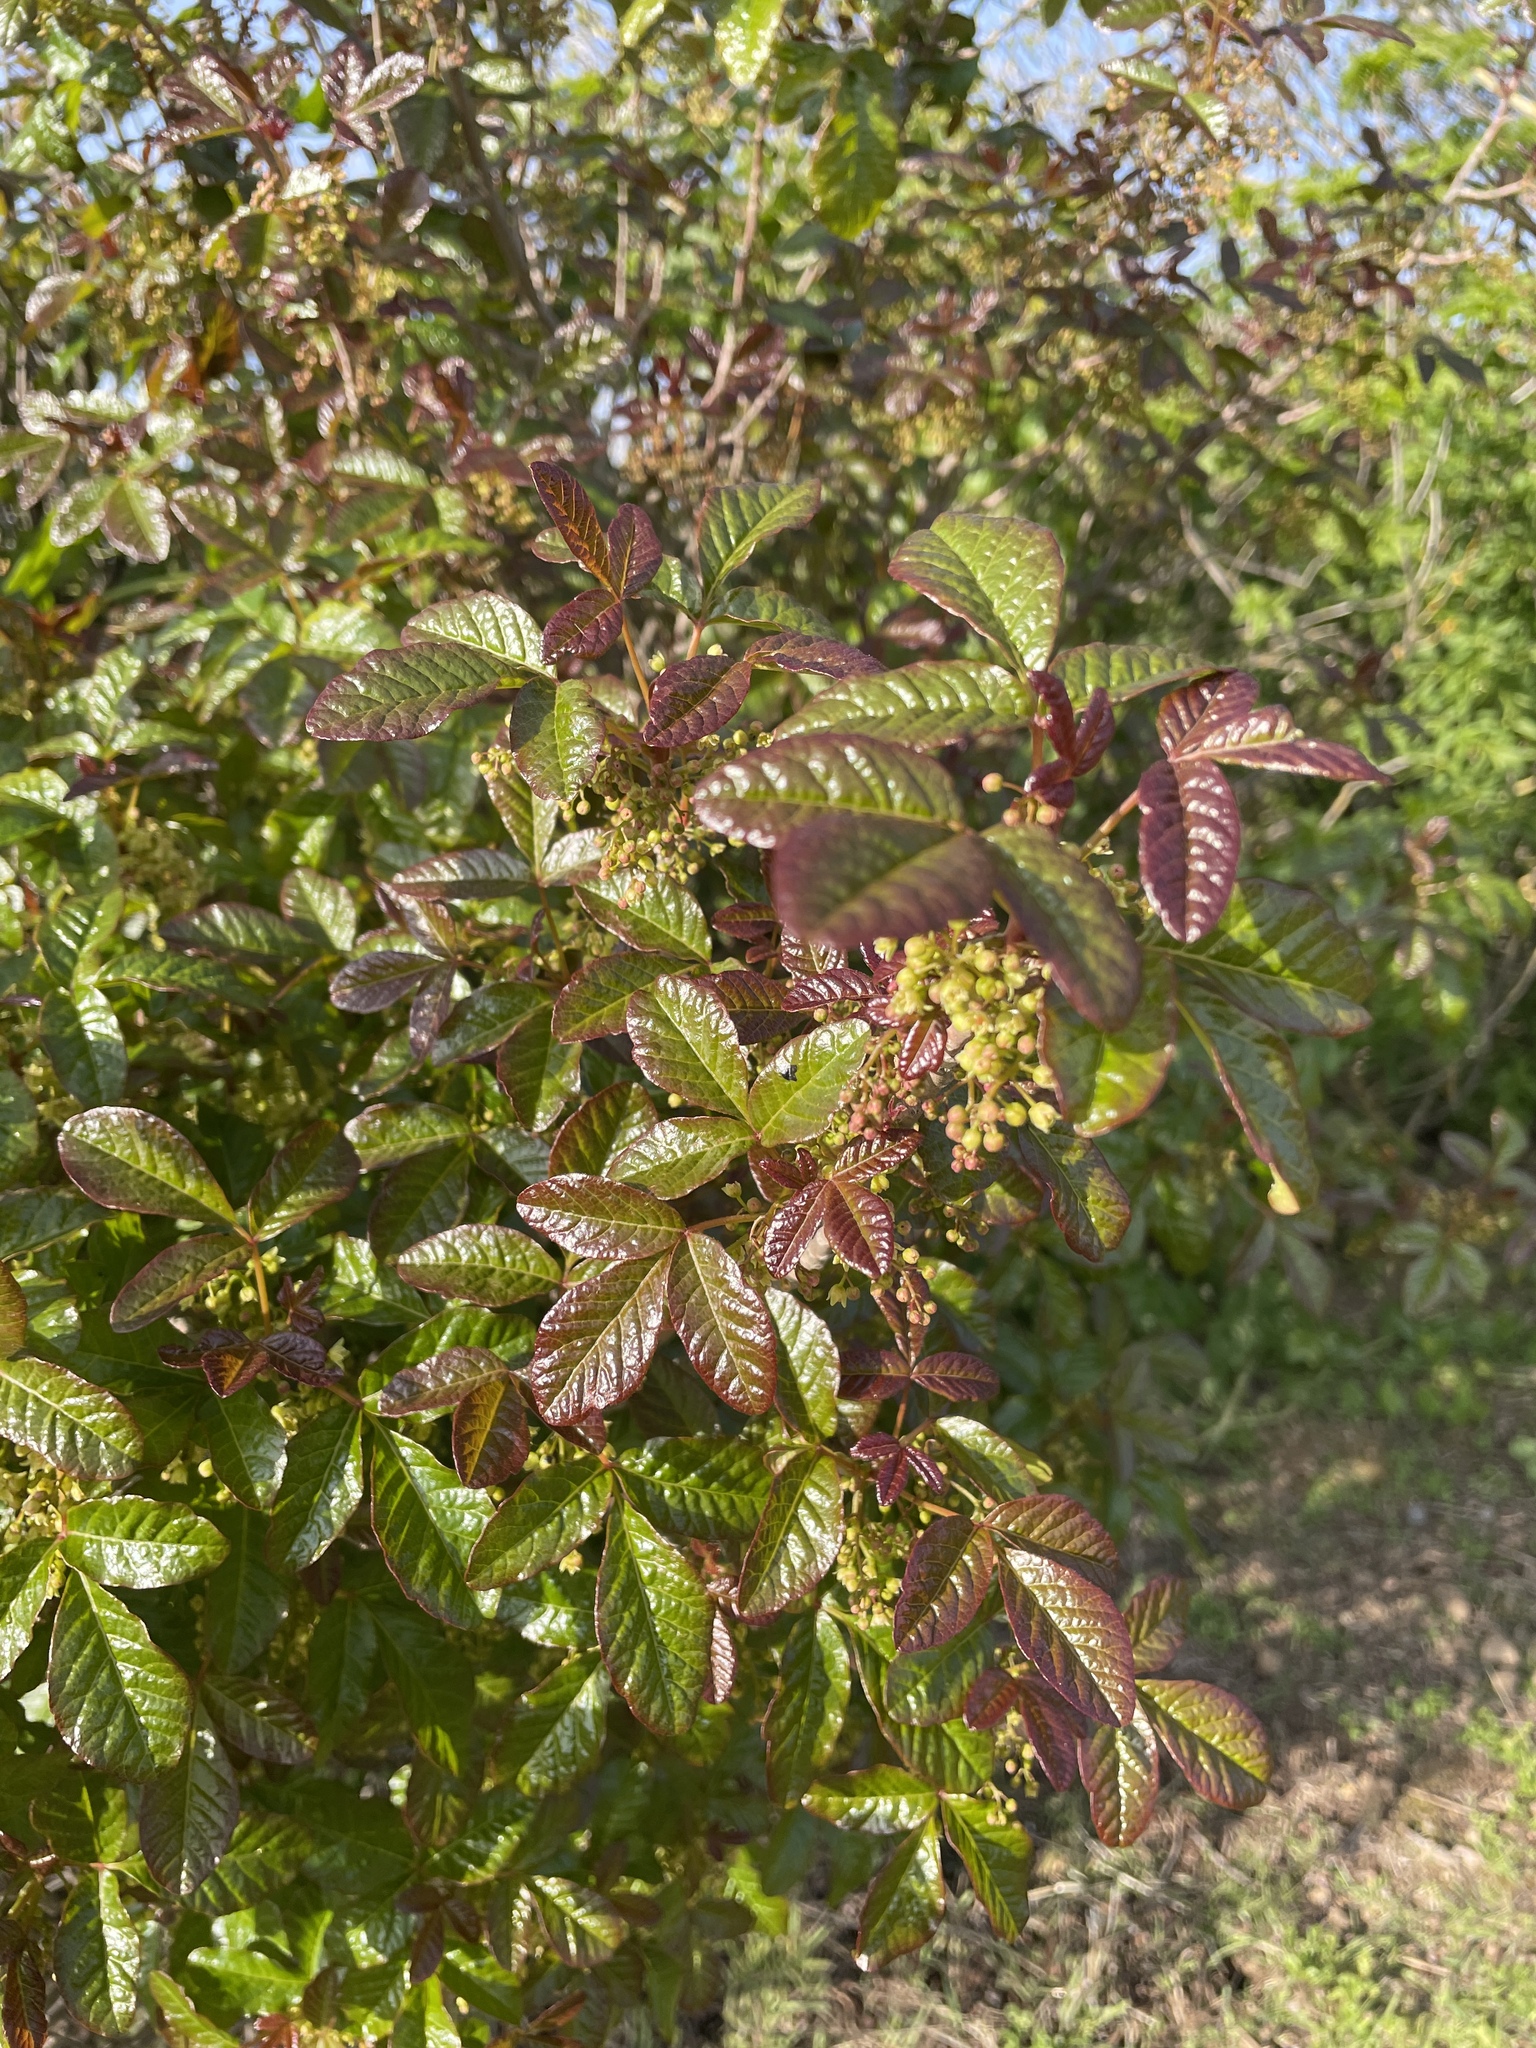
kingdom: Plantae
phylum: Tracheophyta
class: Magnoliopsida
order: Sapindales
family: Anacardiaceae
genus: Toxicodendron
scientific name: Toxicodendron diversilobum
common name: Pacific poison-oak
